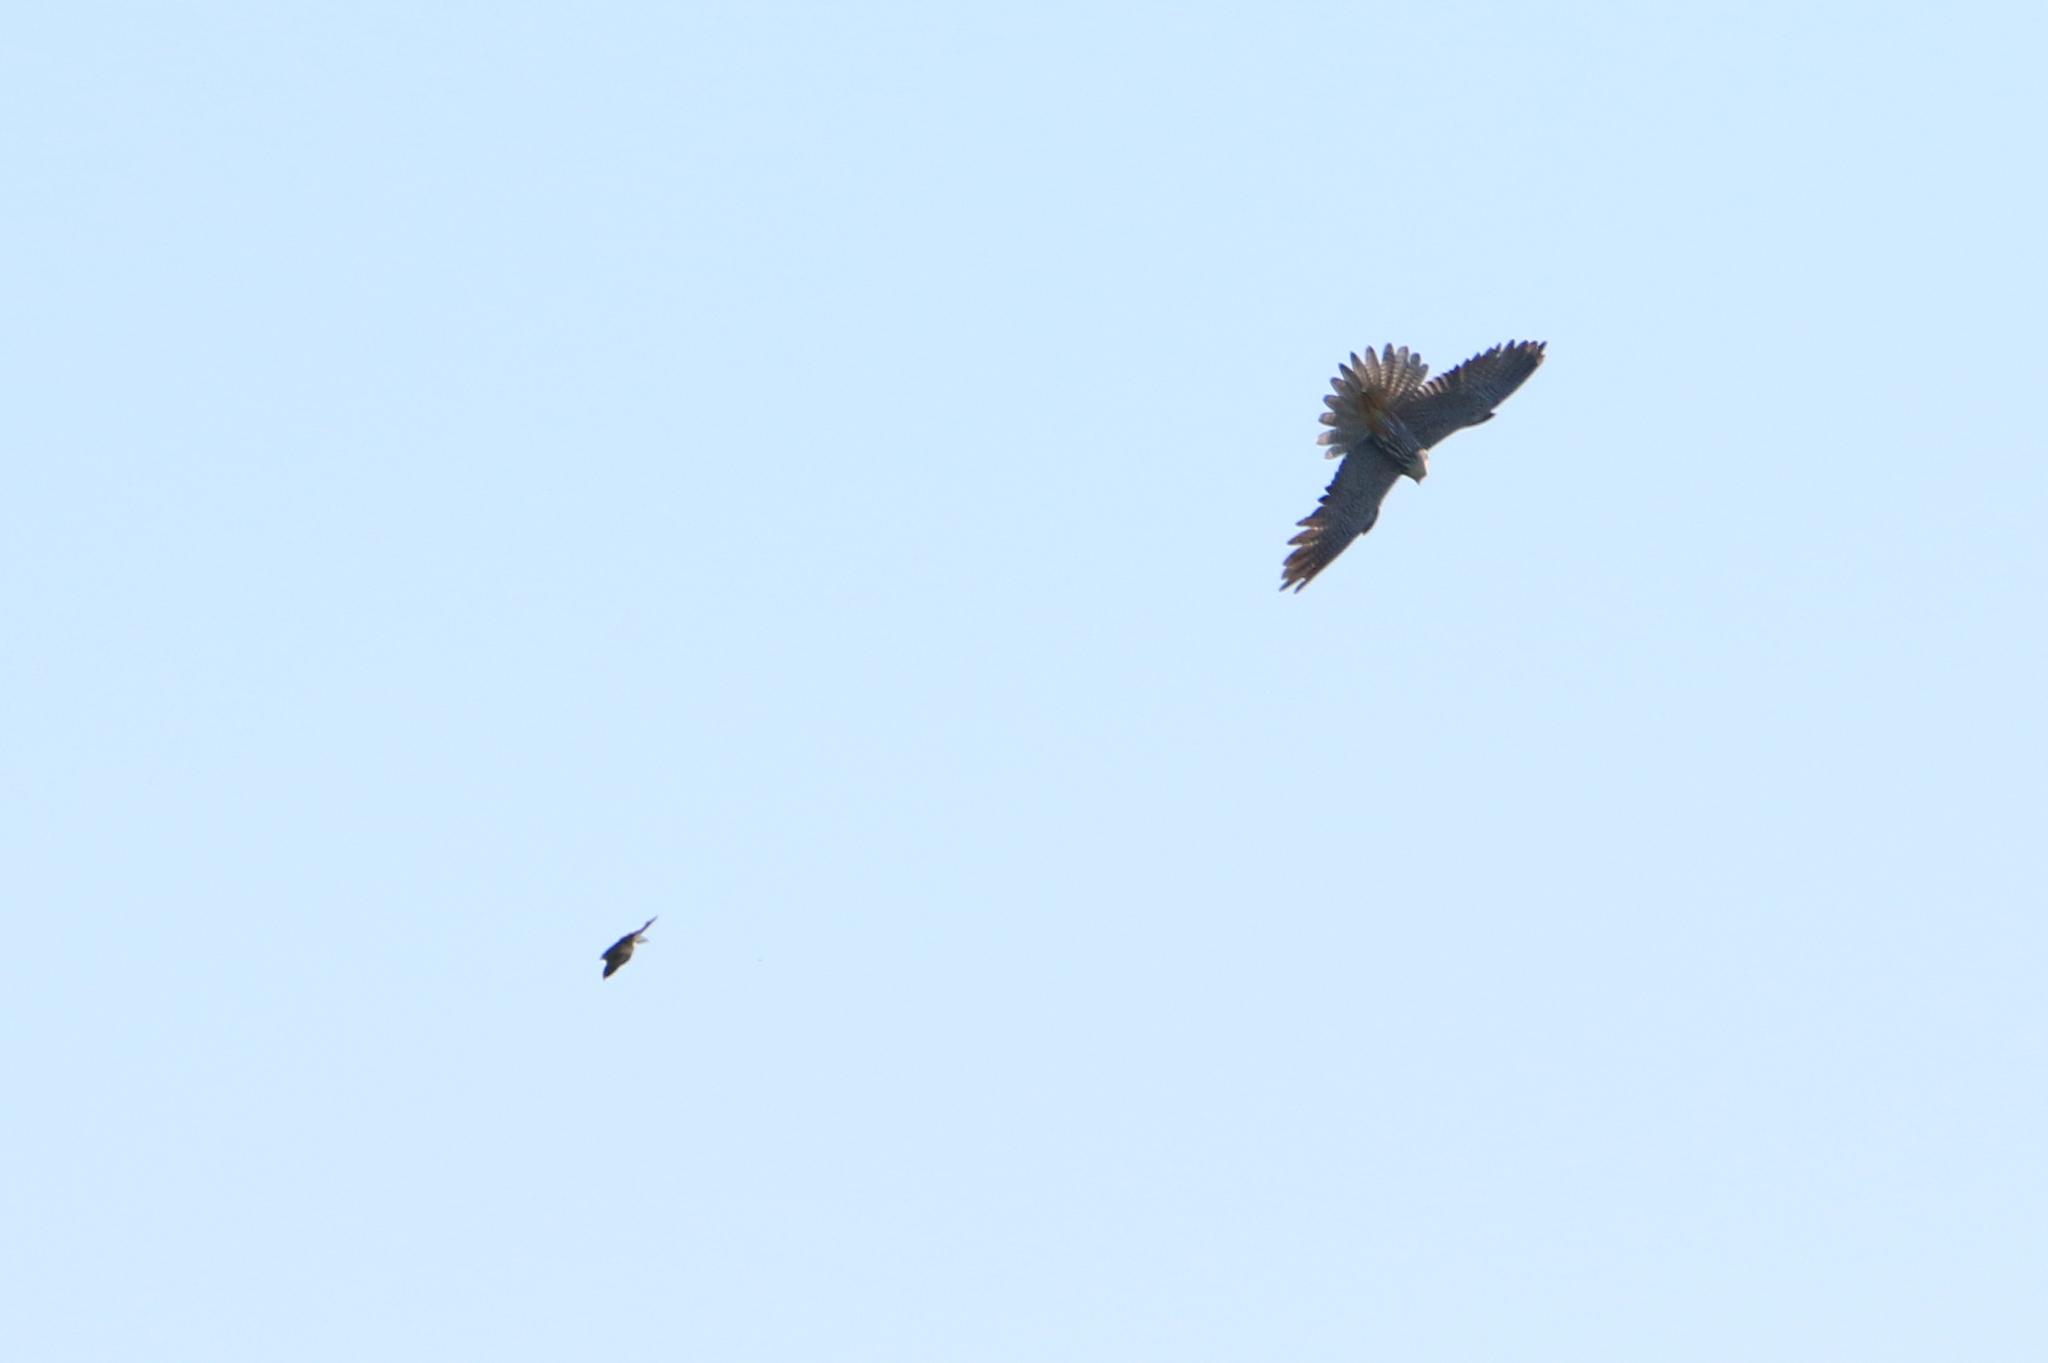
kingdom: Animalia
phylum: Chordata
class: Aves
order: Falconiformes
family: Falconidae
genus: Falco
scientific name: Falco subbuteo
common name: Eurasian hobby
